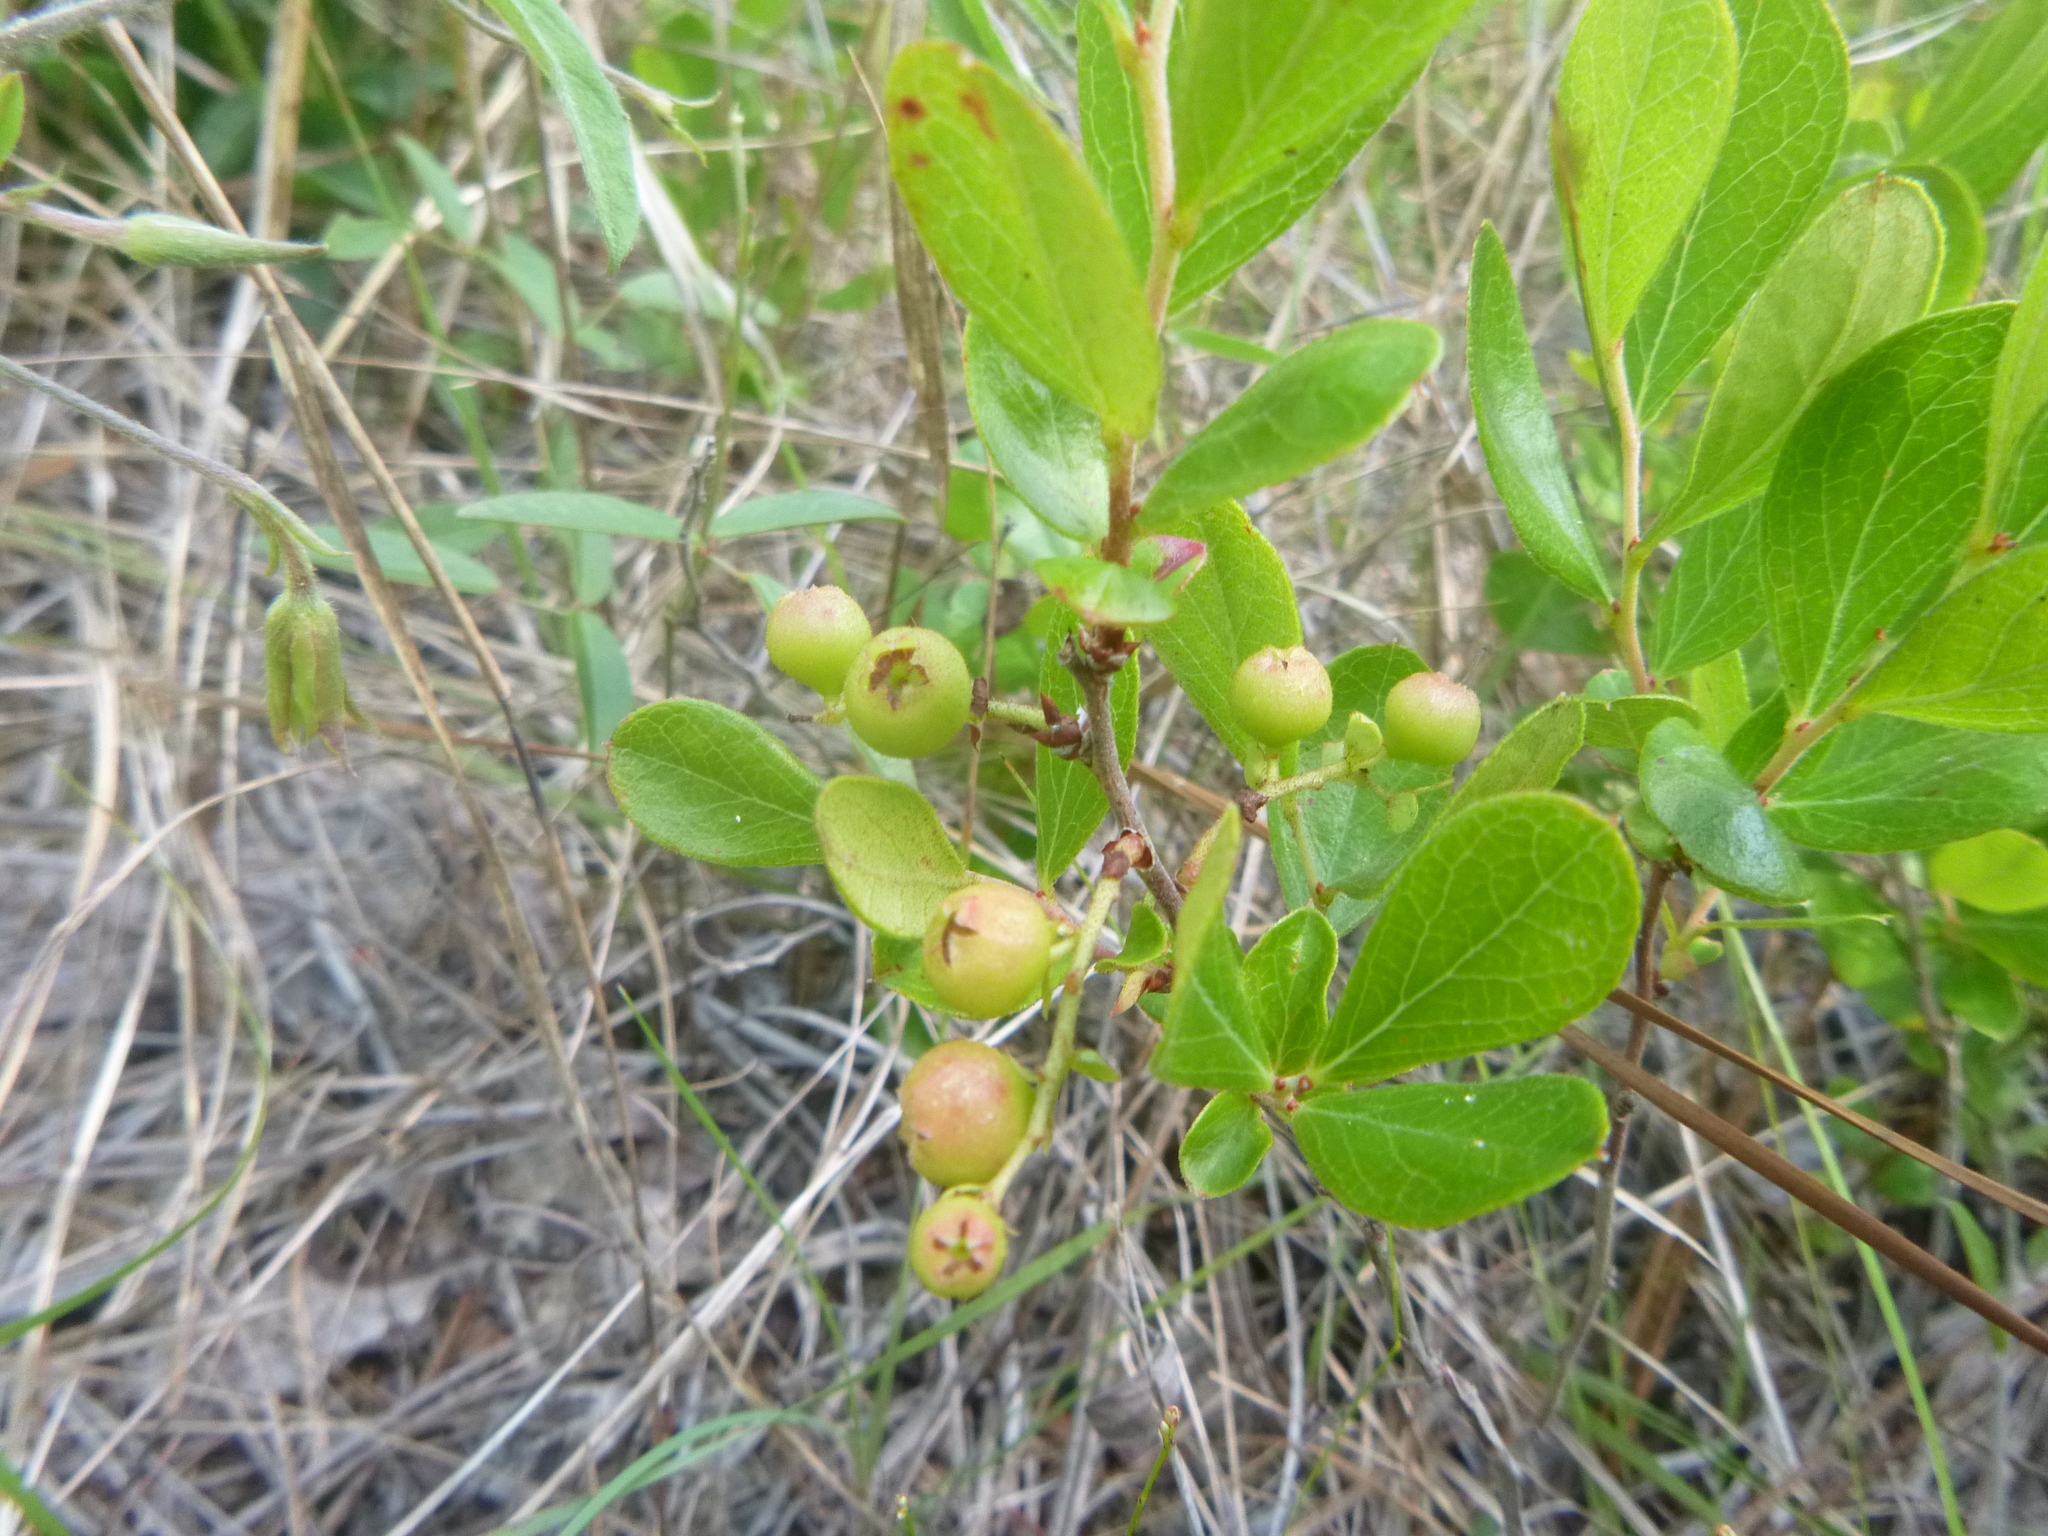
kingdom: Plantae
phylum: Tracheophyta
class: Magnoliopsida
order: Ericales
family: Ericaceae
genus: Gaylussacia
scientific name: Gaylussacia dumosa
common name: Dwarf huckleberry
